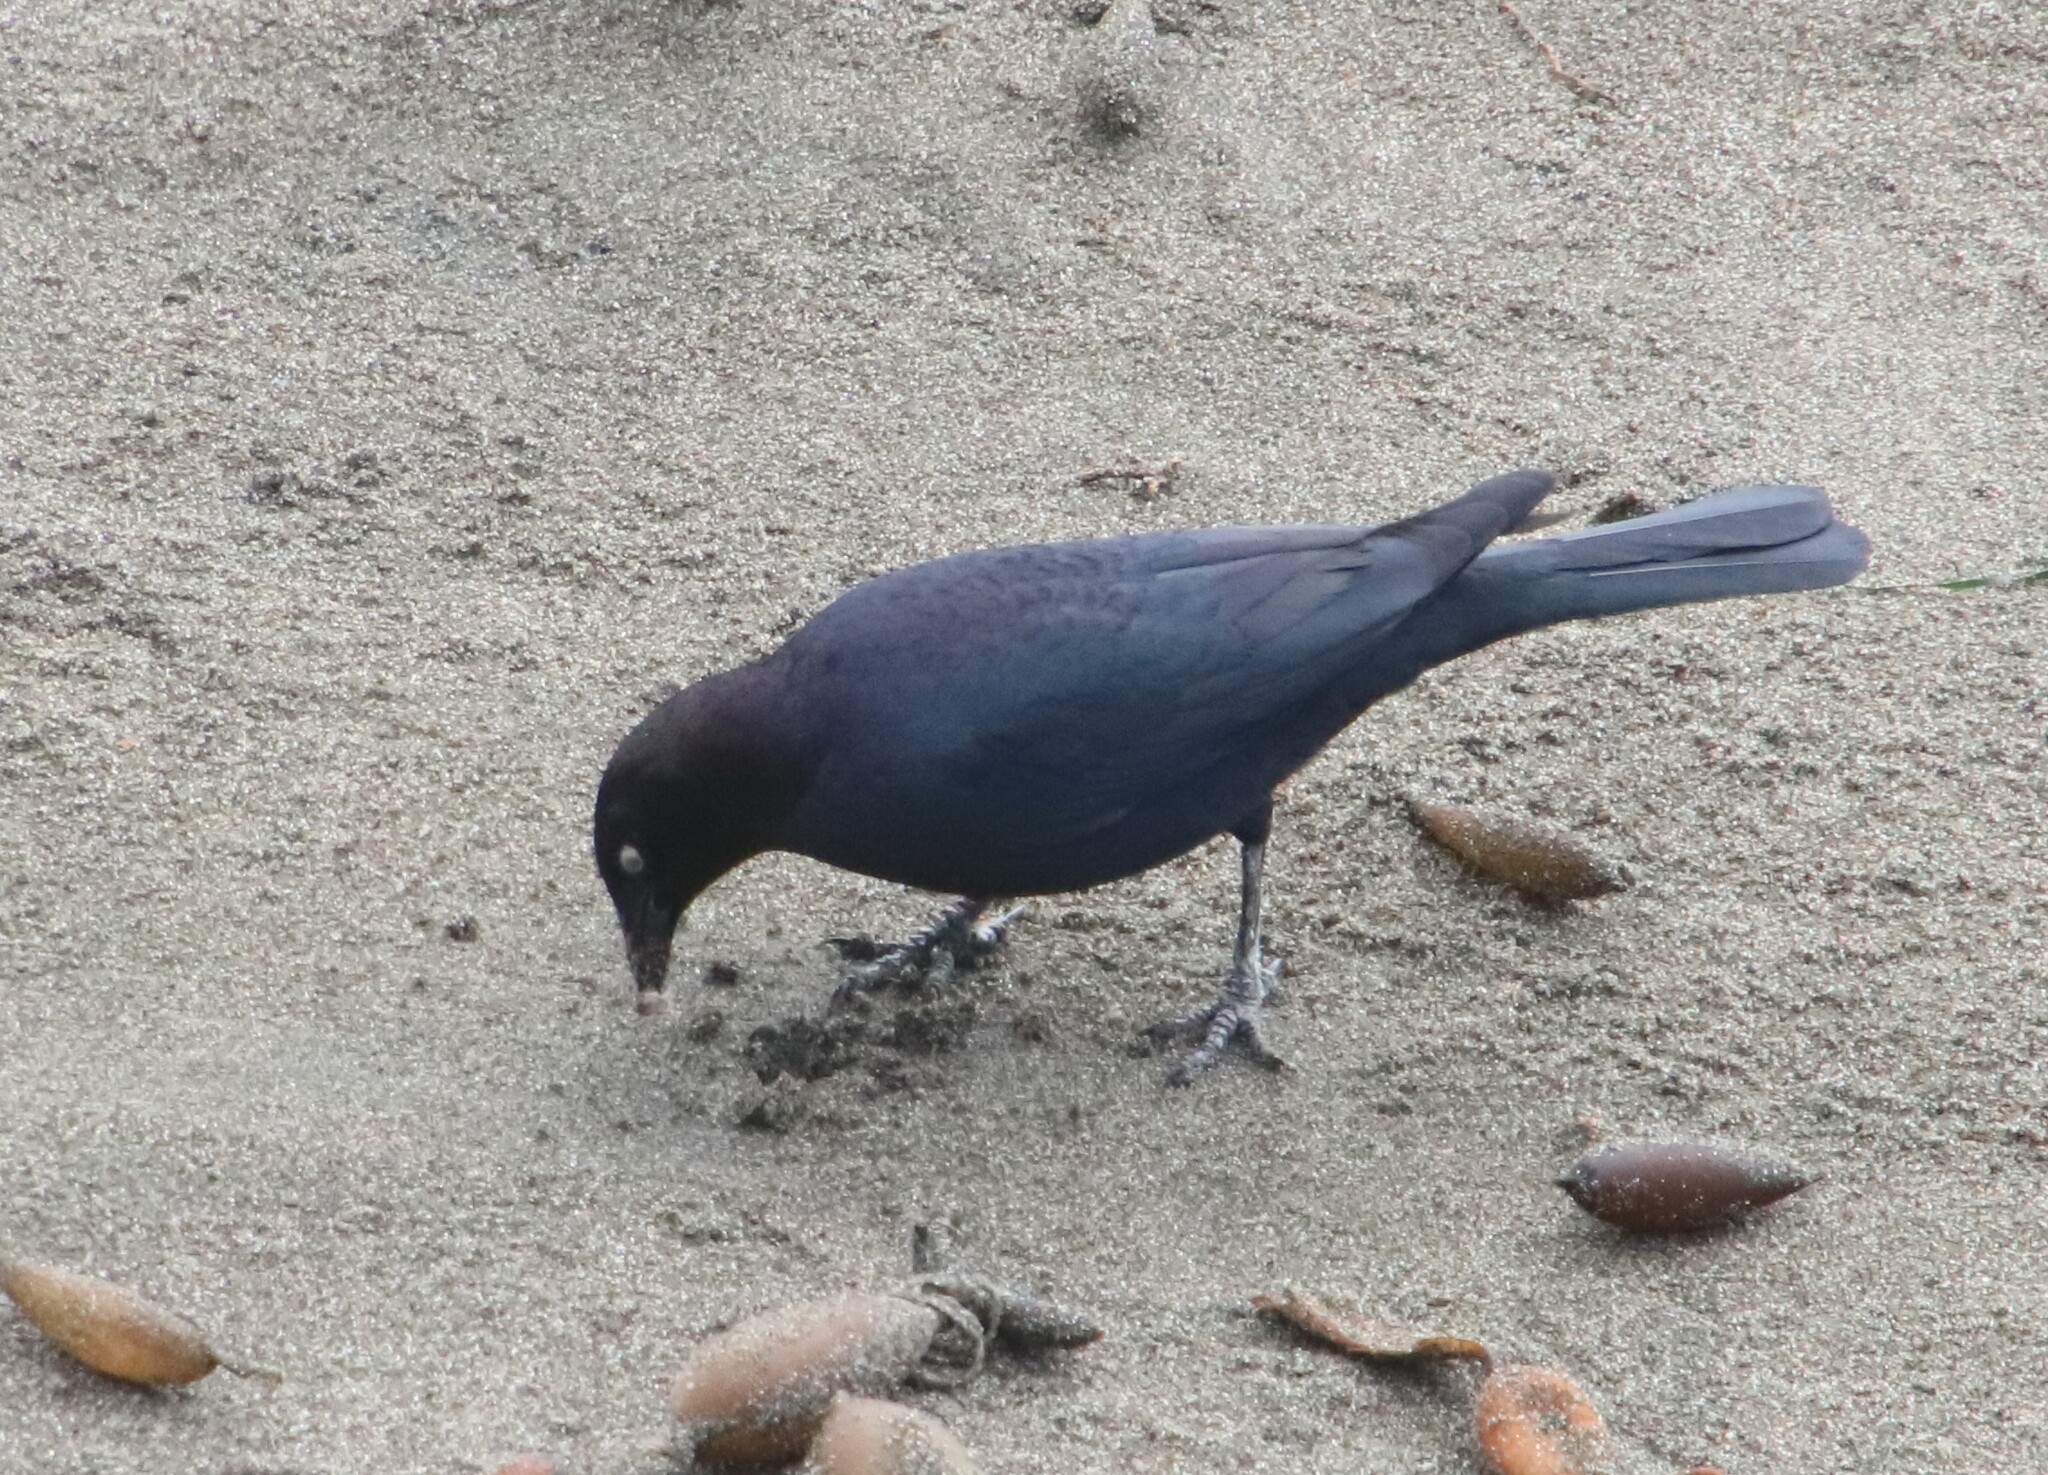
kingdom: Animalia
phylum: Chordata
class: Aves
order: Passeriformes
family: Icteridae
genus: Euphagus
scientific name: Euphagus cyanocephalus
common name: Brewer's blackbird
